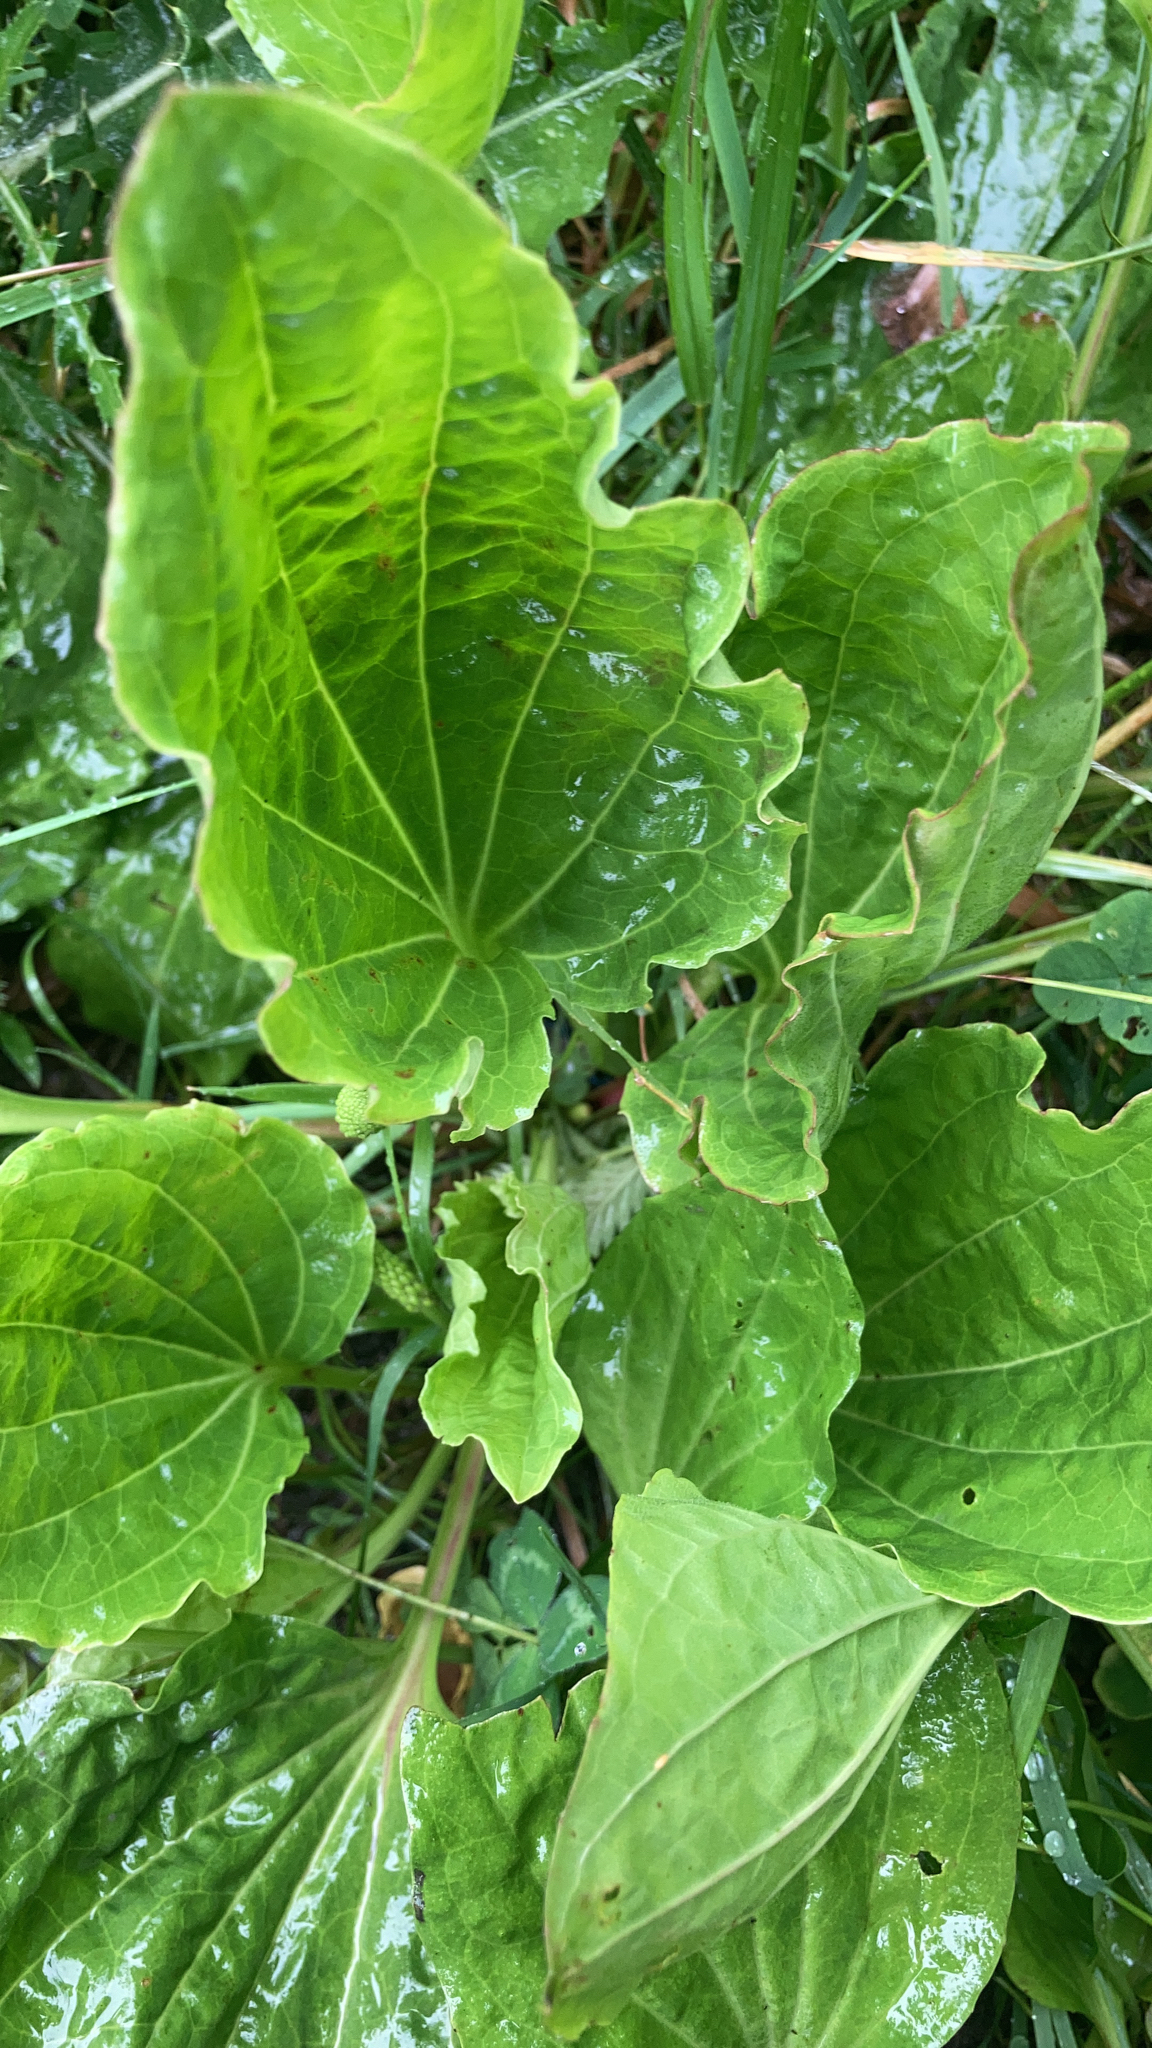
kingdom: Plantae
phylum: Tracheophyta
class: Magnoliopsida
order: Lamiales
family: Plantaginaceae
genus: Plantago
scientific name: Plantago major
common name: Common plantain
